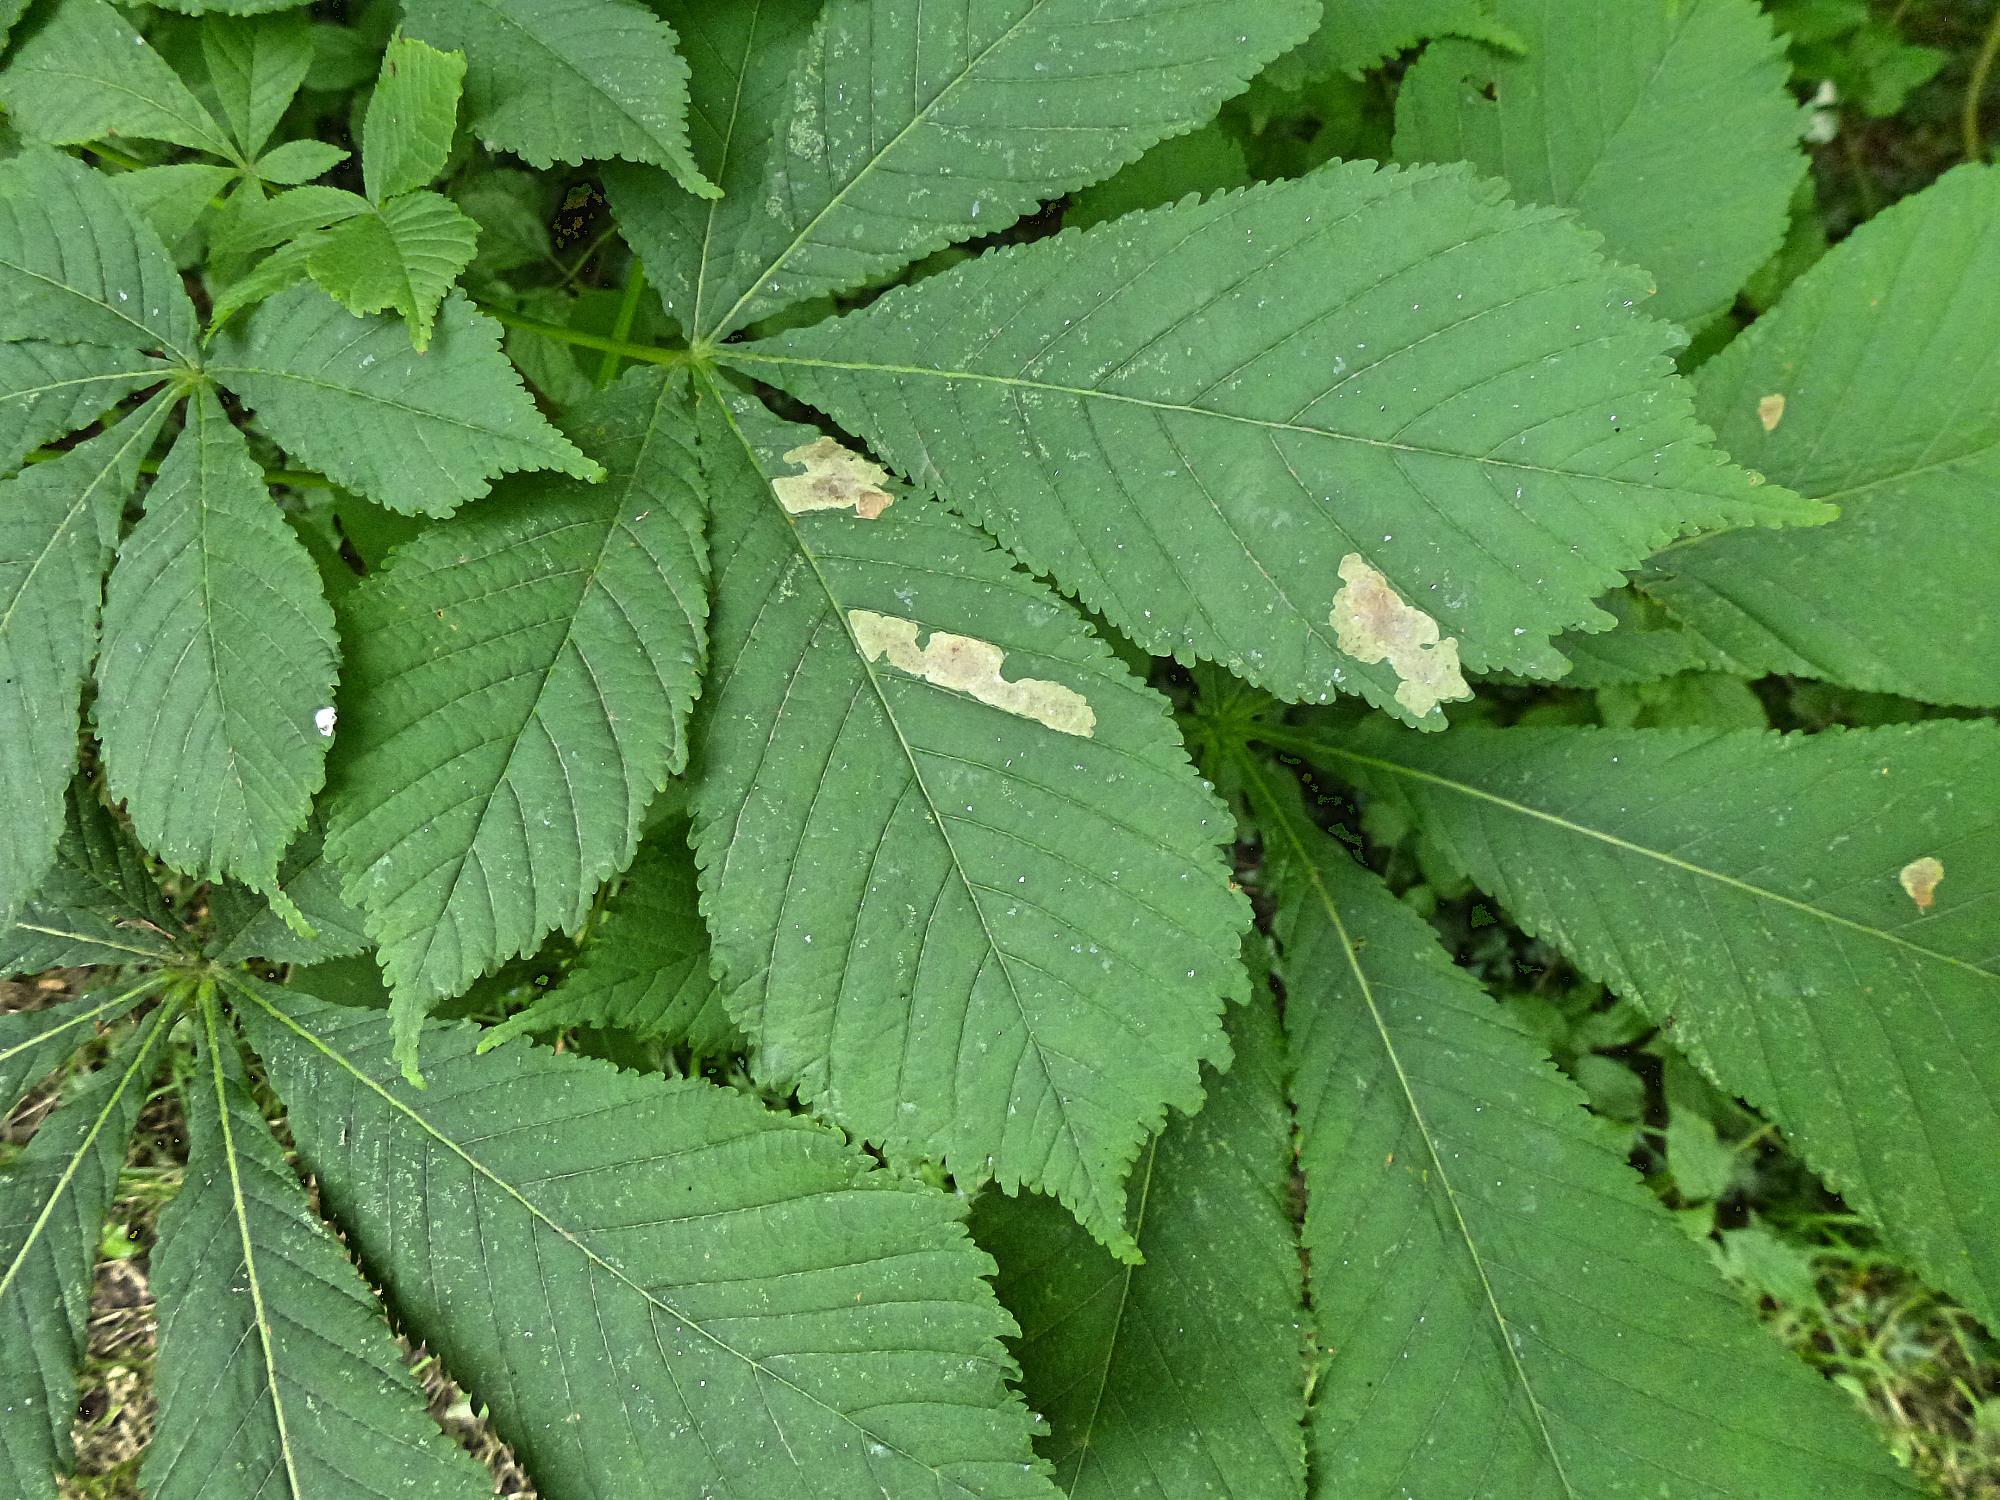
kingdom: Animalia
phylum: Arthropoda
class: Insecta
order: Lepidoptera
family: Gracillariidae
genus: Cameraria
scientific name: Cameraria ohridella
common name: Horse-chestnut leaf-miner
